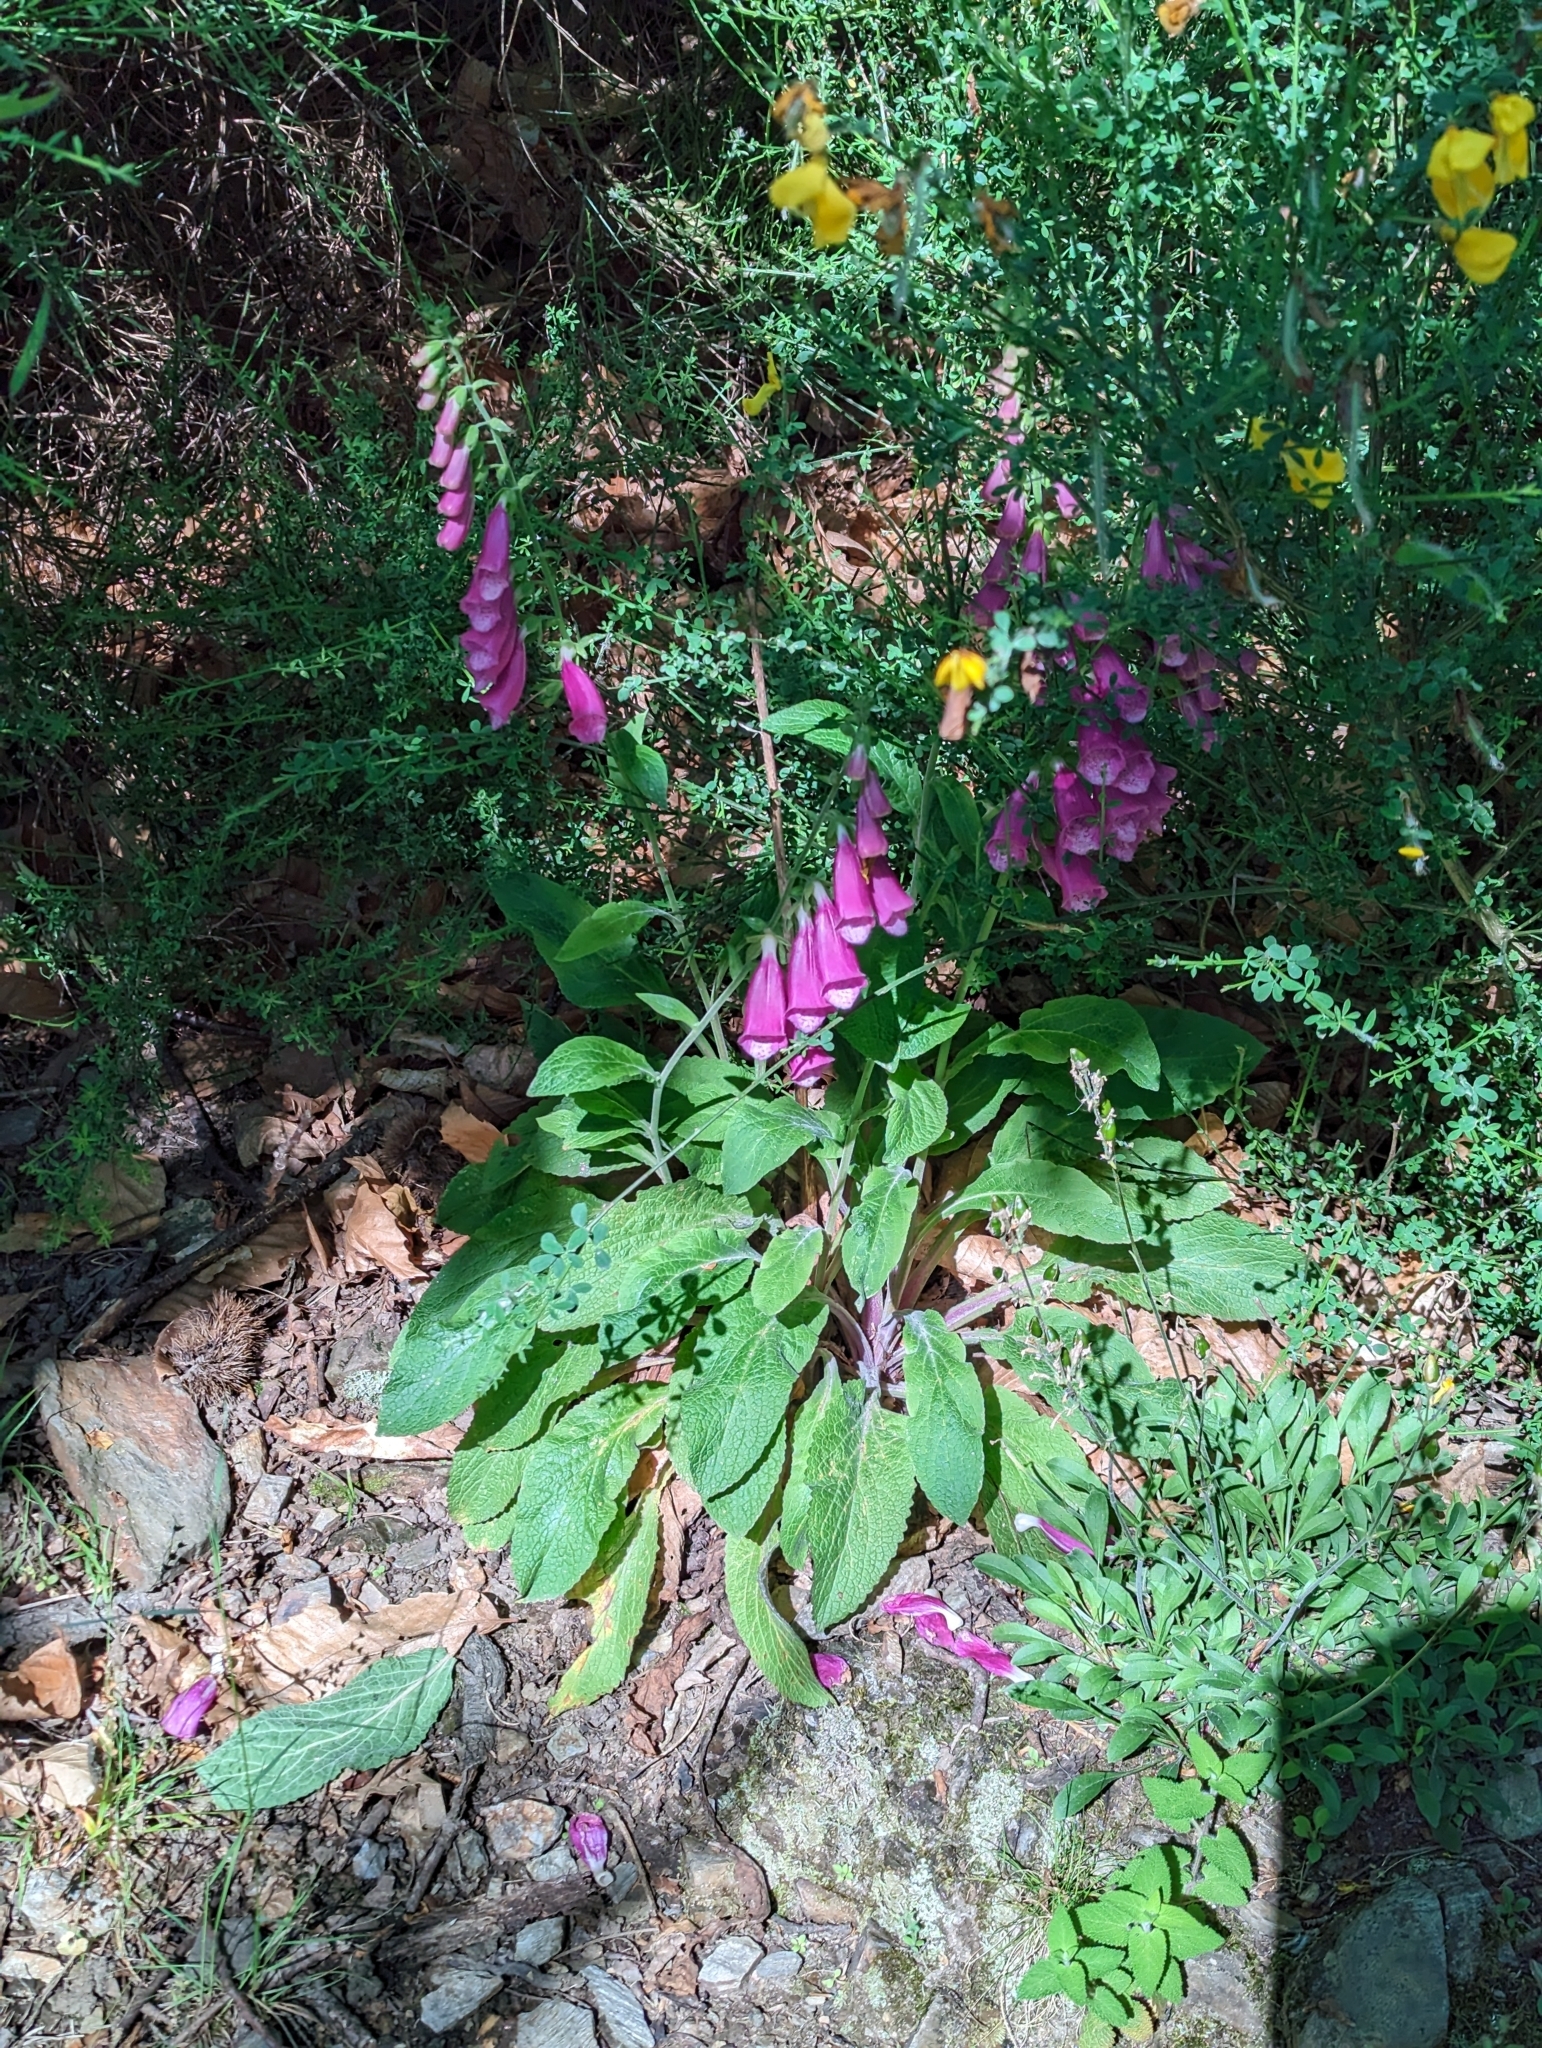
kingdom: Plantae
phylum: Tracheophyta
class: Magnoliopsida
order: Lamiales
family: Plantaginaceae
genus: Digitalis
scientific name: Digitalis purpurea
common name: Foxglove
